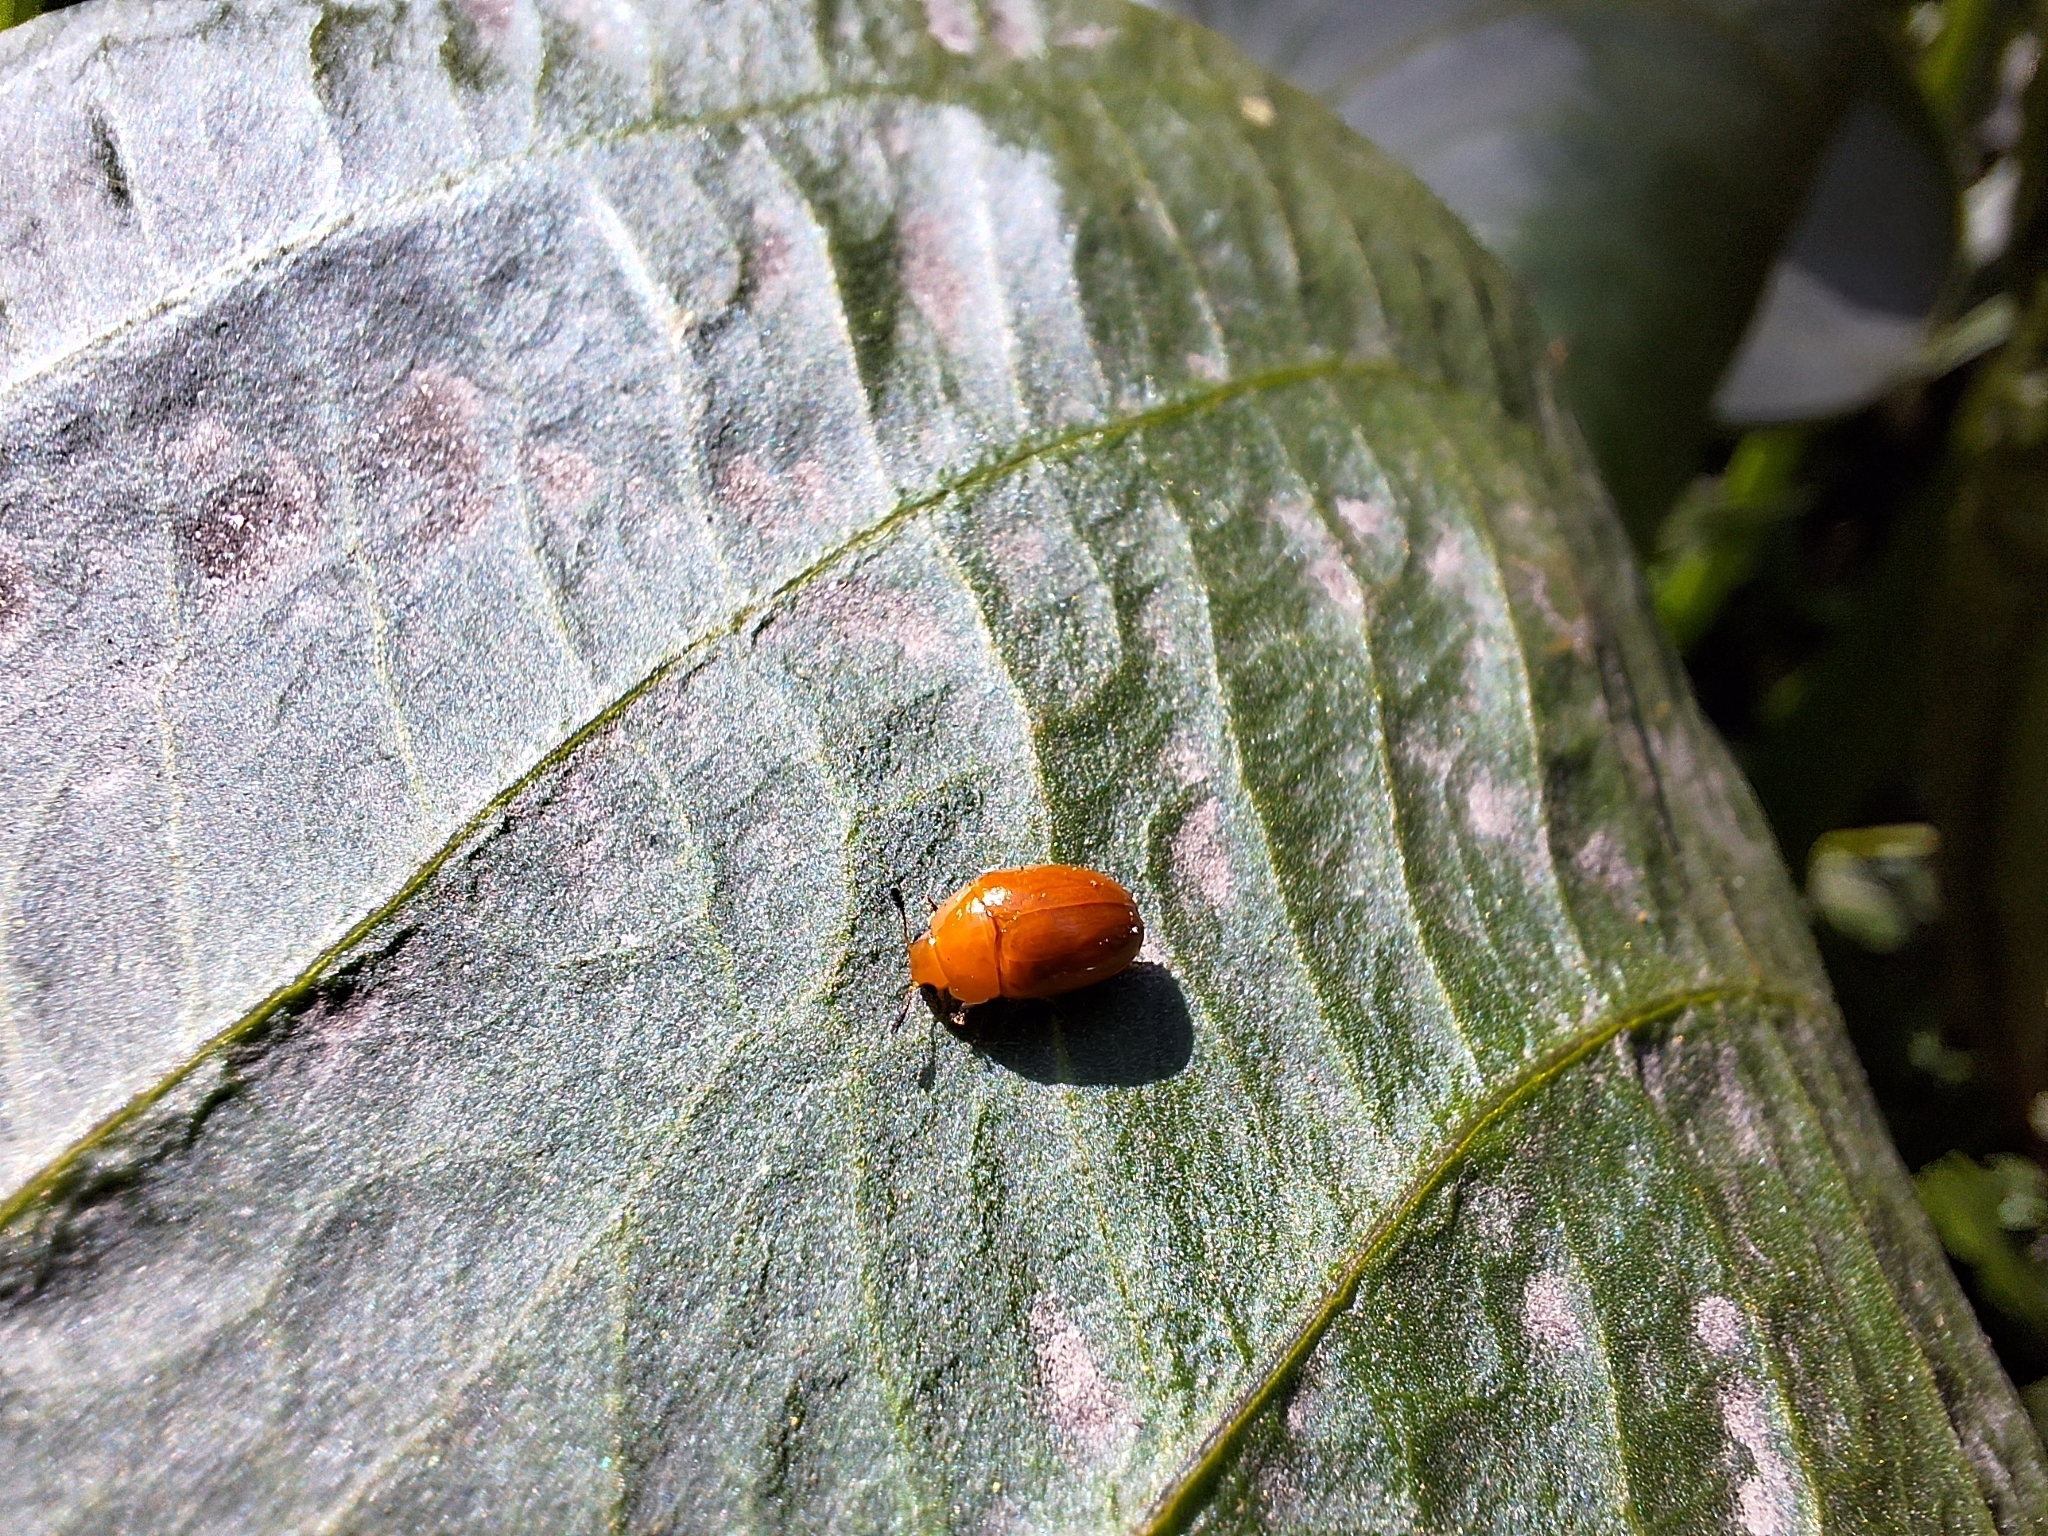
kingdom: Animalia
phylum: Arthropoda
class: Insecta
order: Coleoptera
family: Erotylidae
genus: Mycomystes
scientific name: Mycomystes nigriventris
